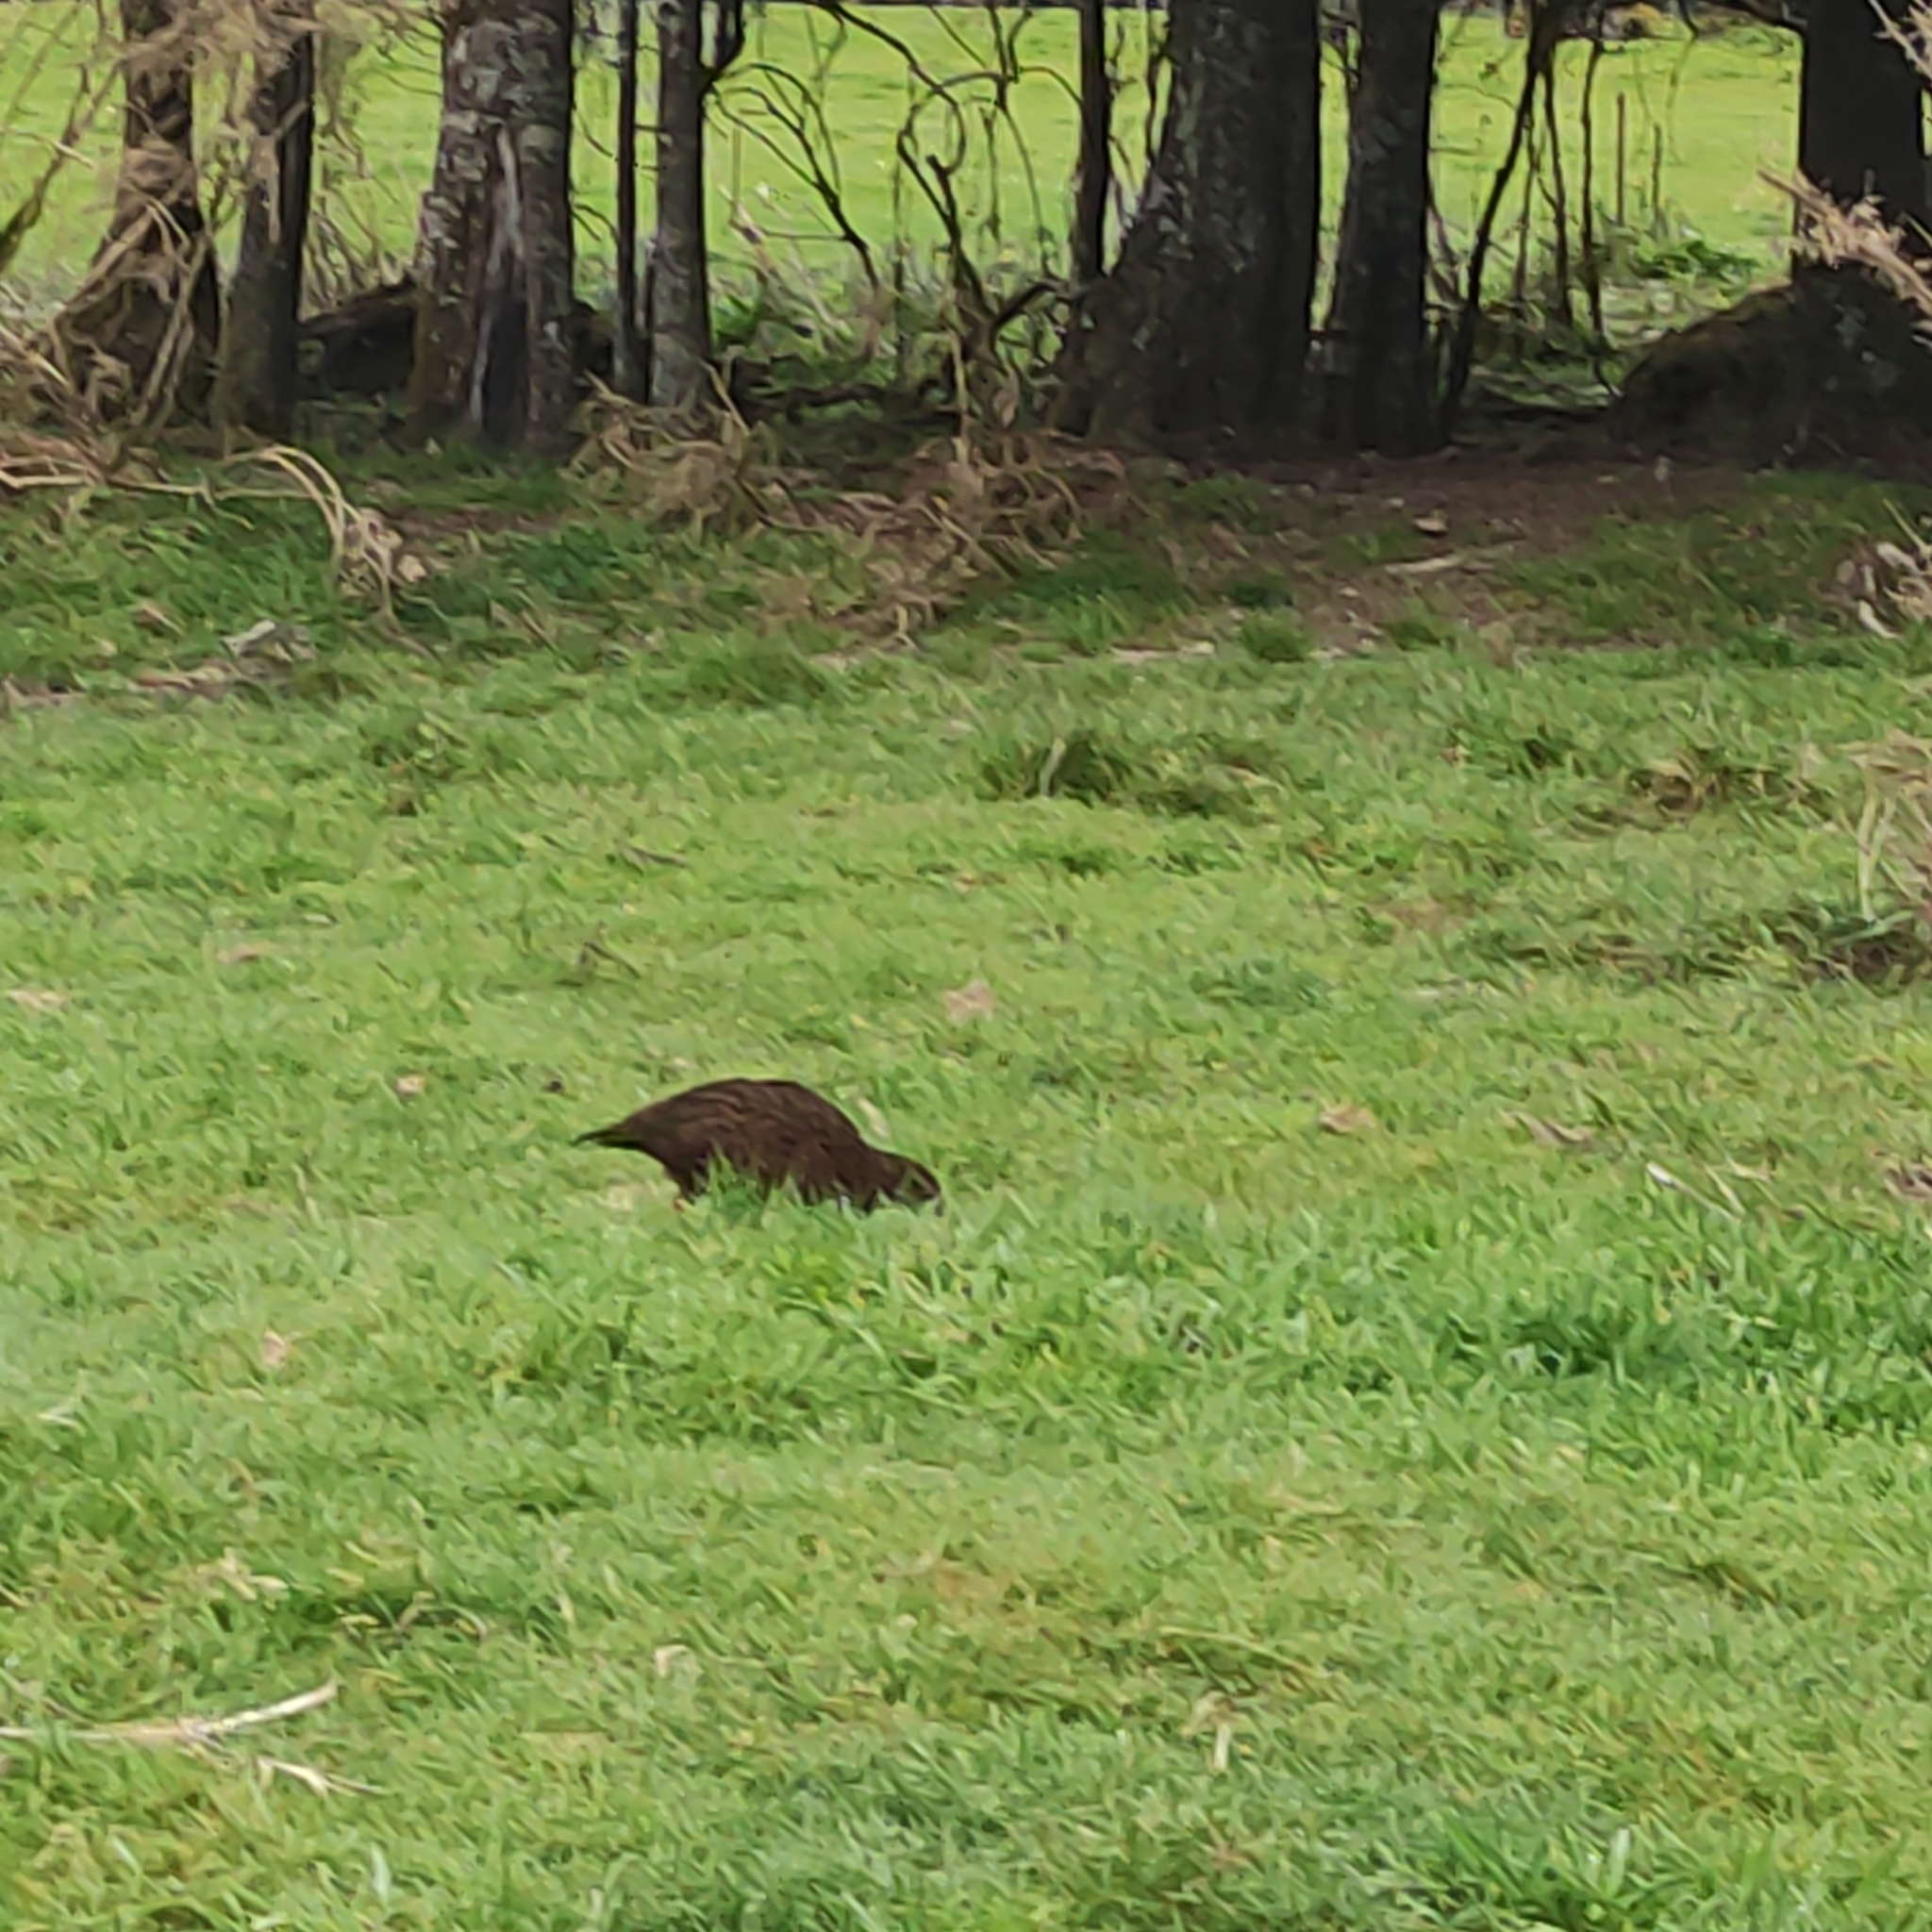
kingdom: Animalia
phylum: Chordata
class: Aves
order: Gruiformes
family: Rallidae
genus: Gallirallus
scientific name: Gallirallus australis
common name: Weka
